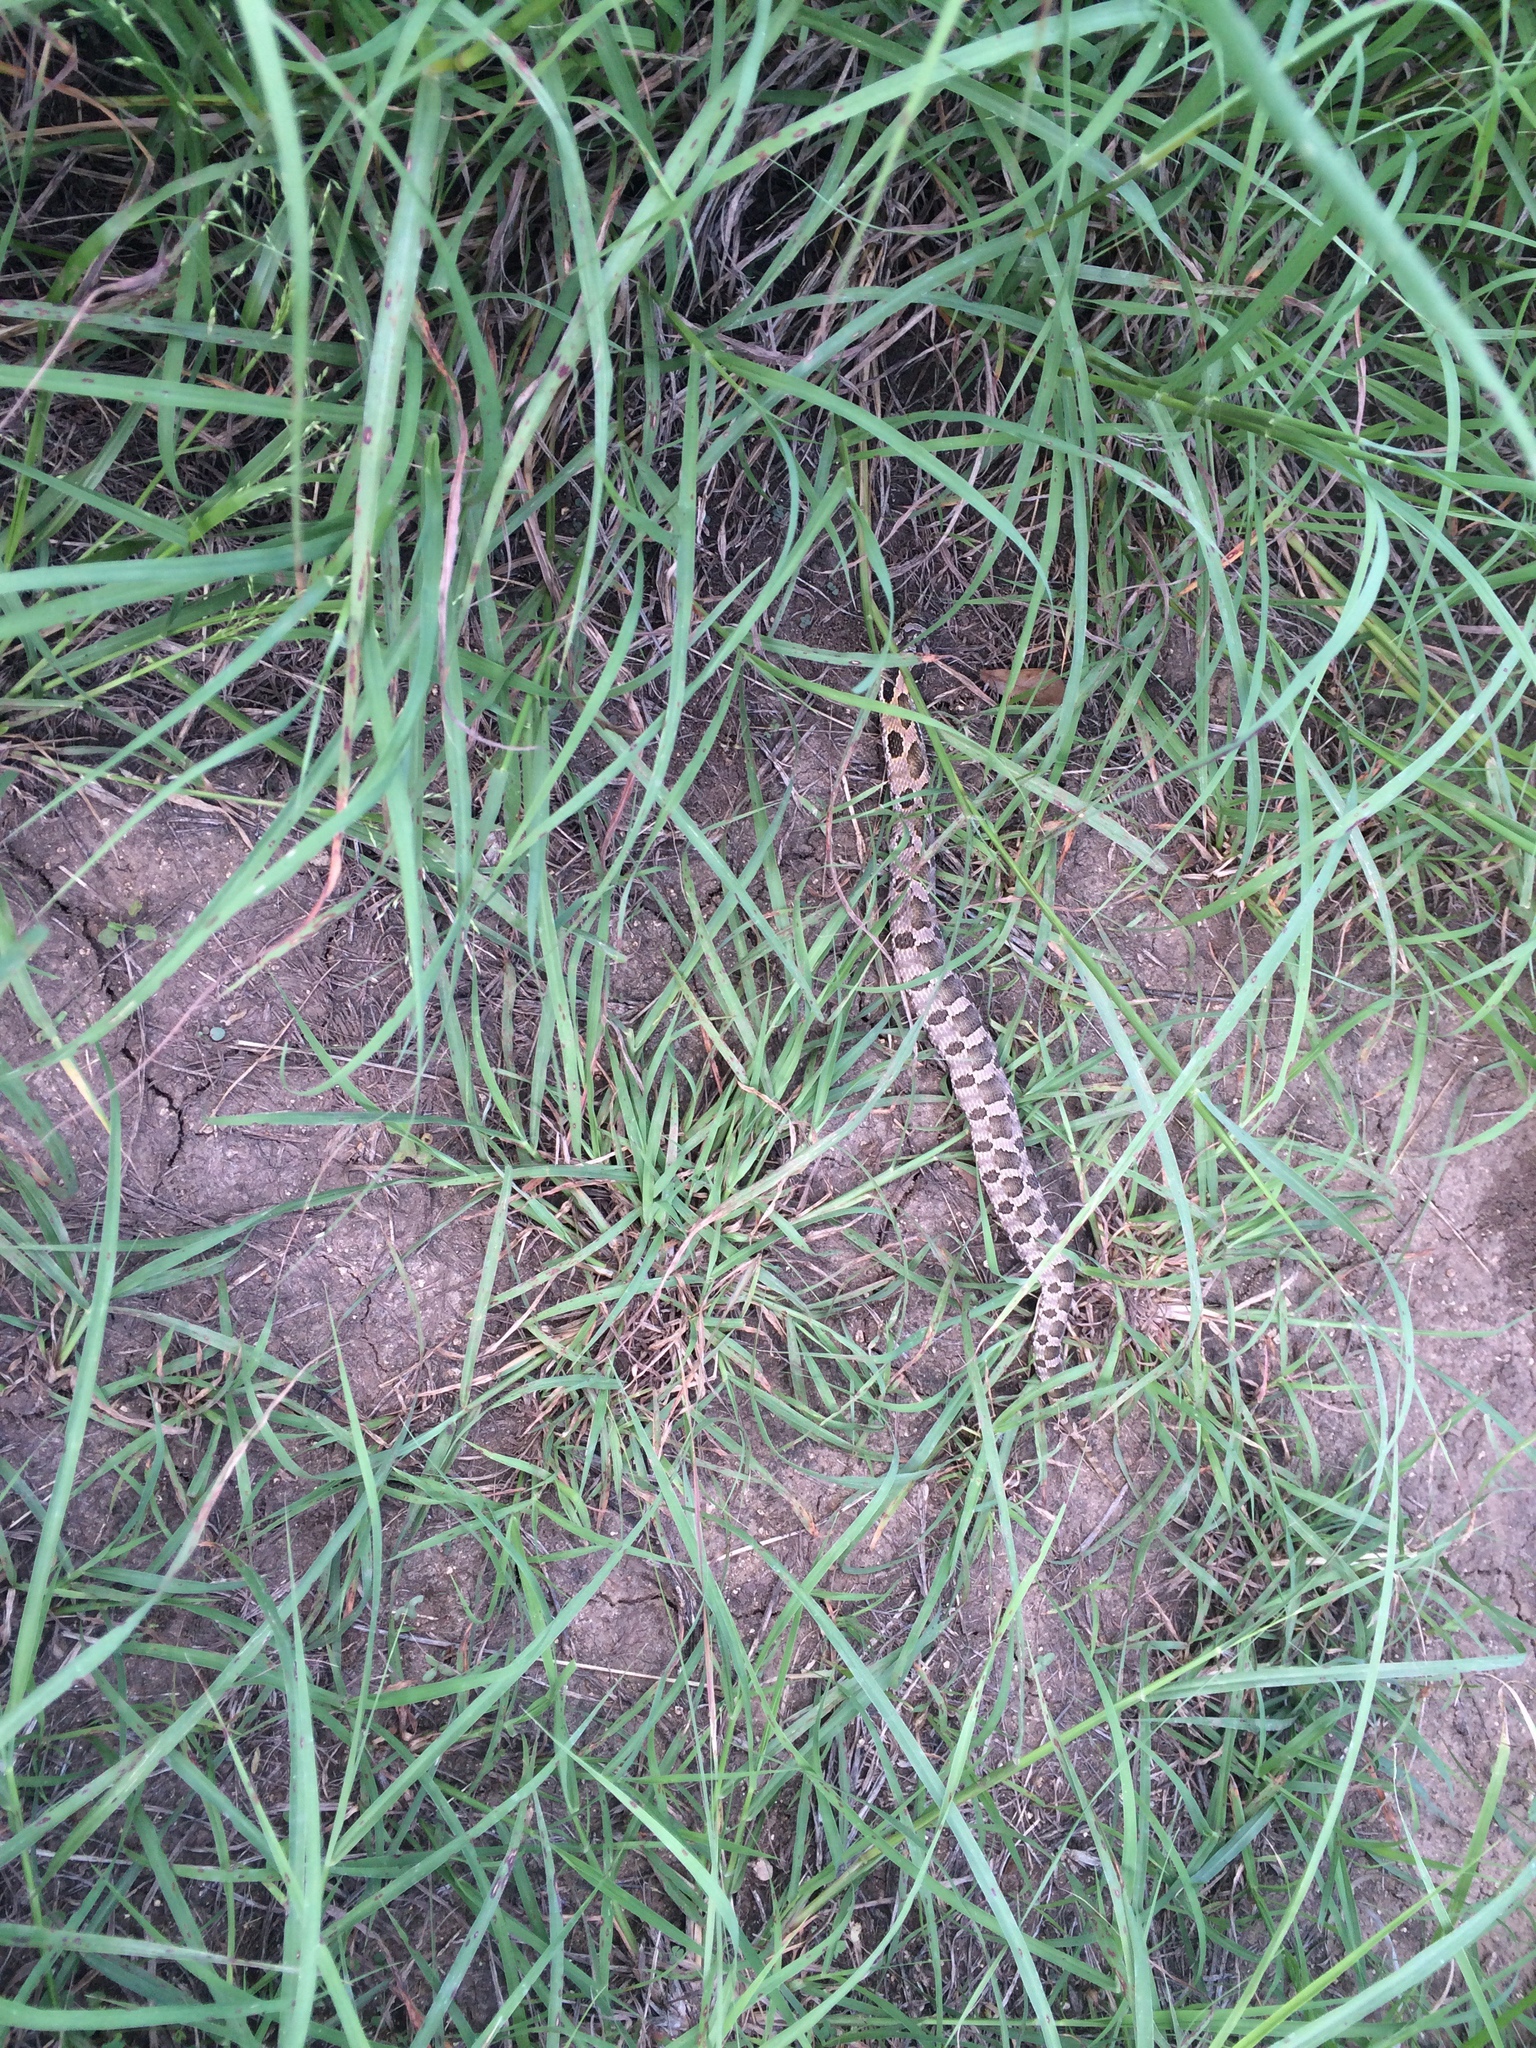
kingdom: Animalia
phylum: Chordata
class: Squamata
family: Colubridae
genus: Heterodon
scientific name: Heterodon platirhinos
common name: Eastern hognose snake
